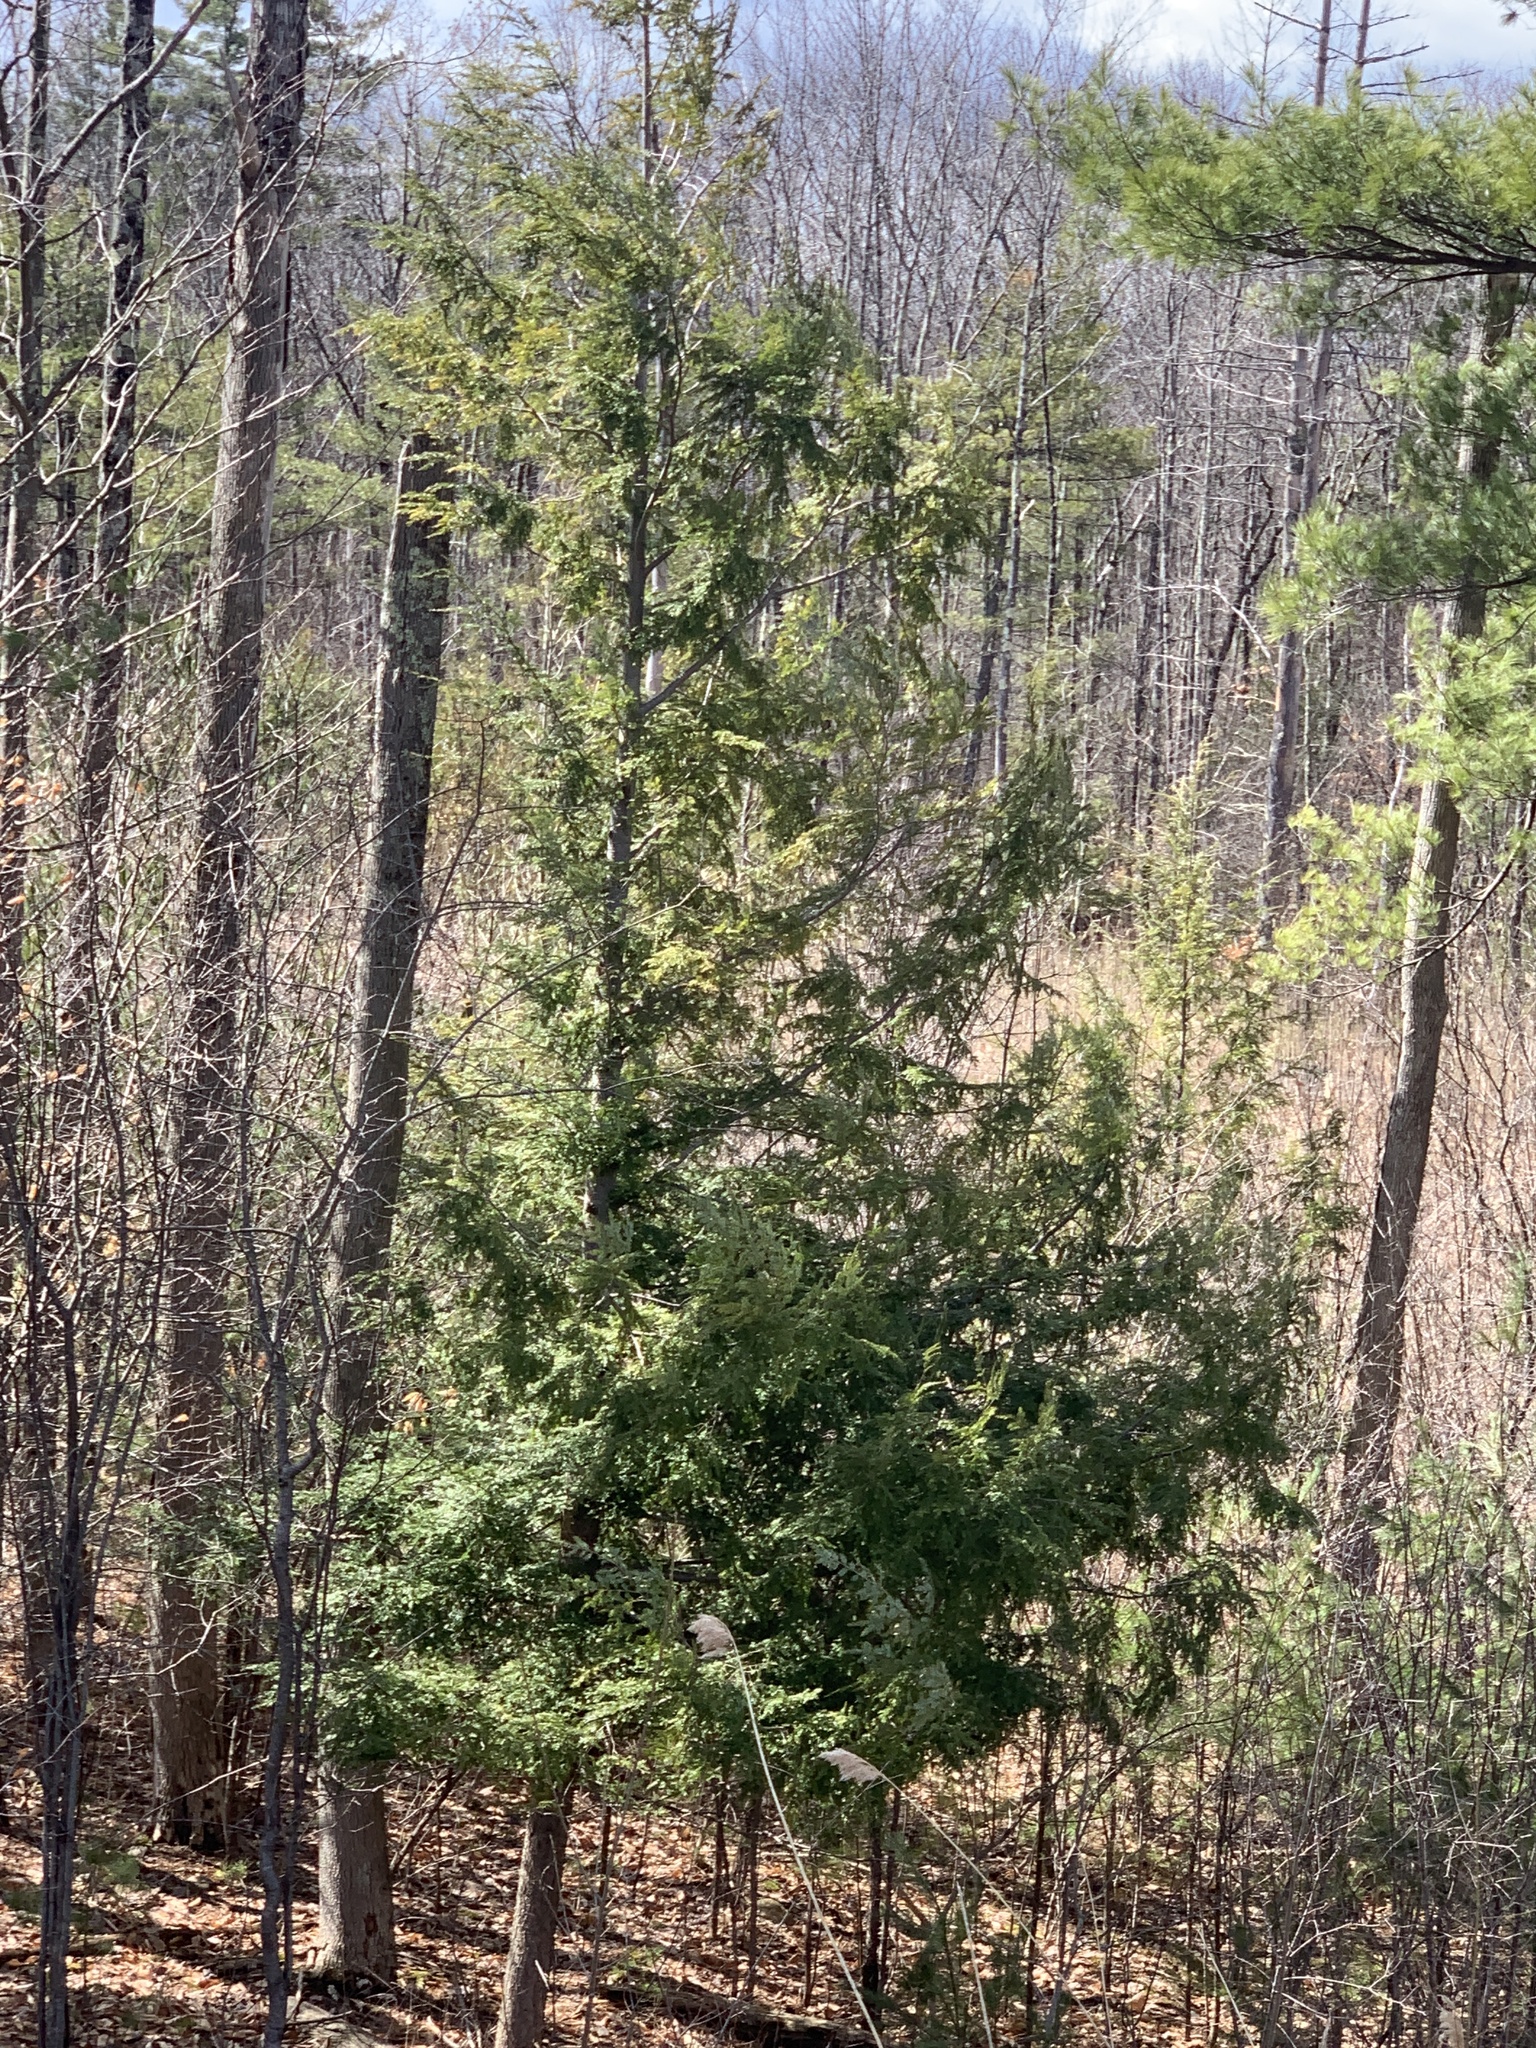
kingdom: Plantae
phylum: Tracheophyta
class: Pinopsida
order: Pinales
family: Pinaceae
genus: Tsuga
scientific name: Tsuga canadensis
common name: Eastern hemlock
